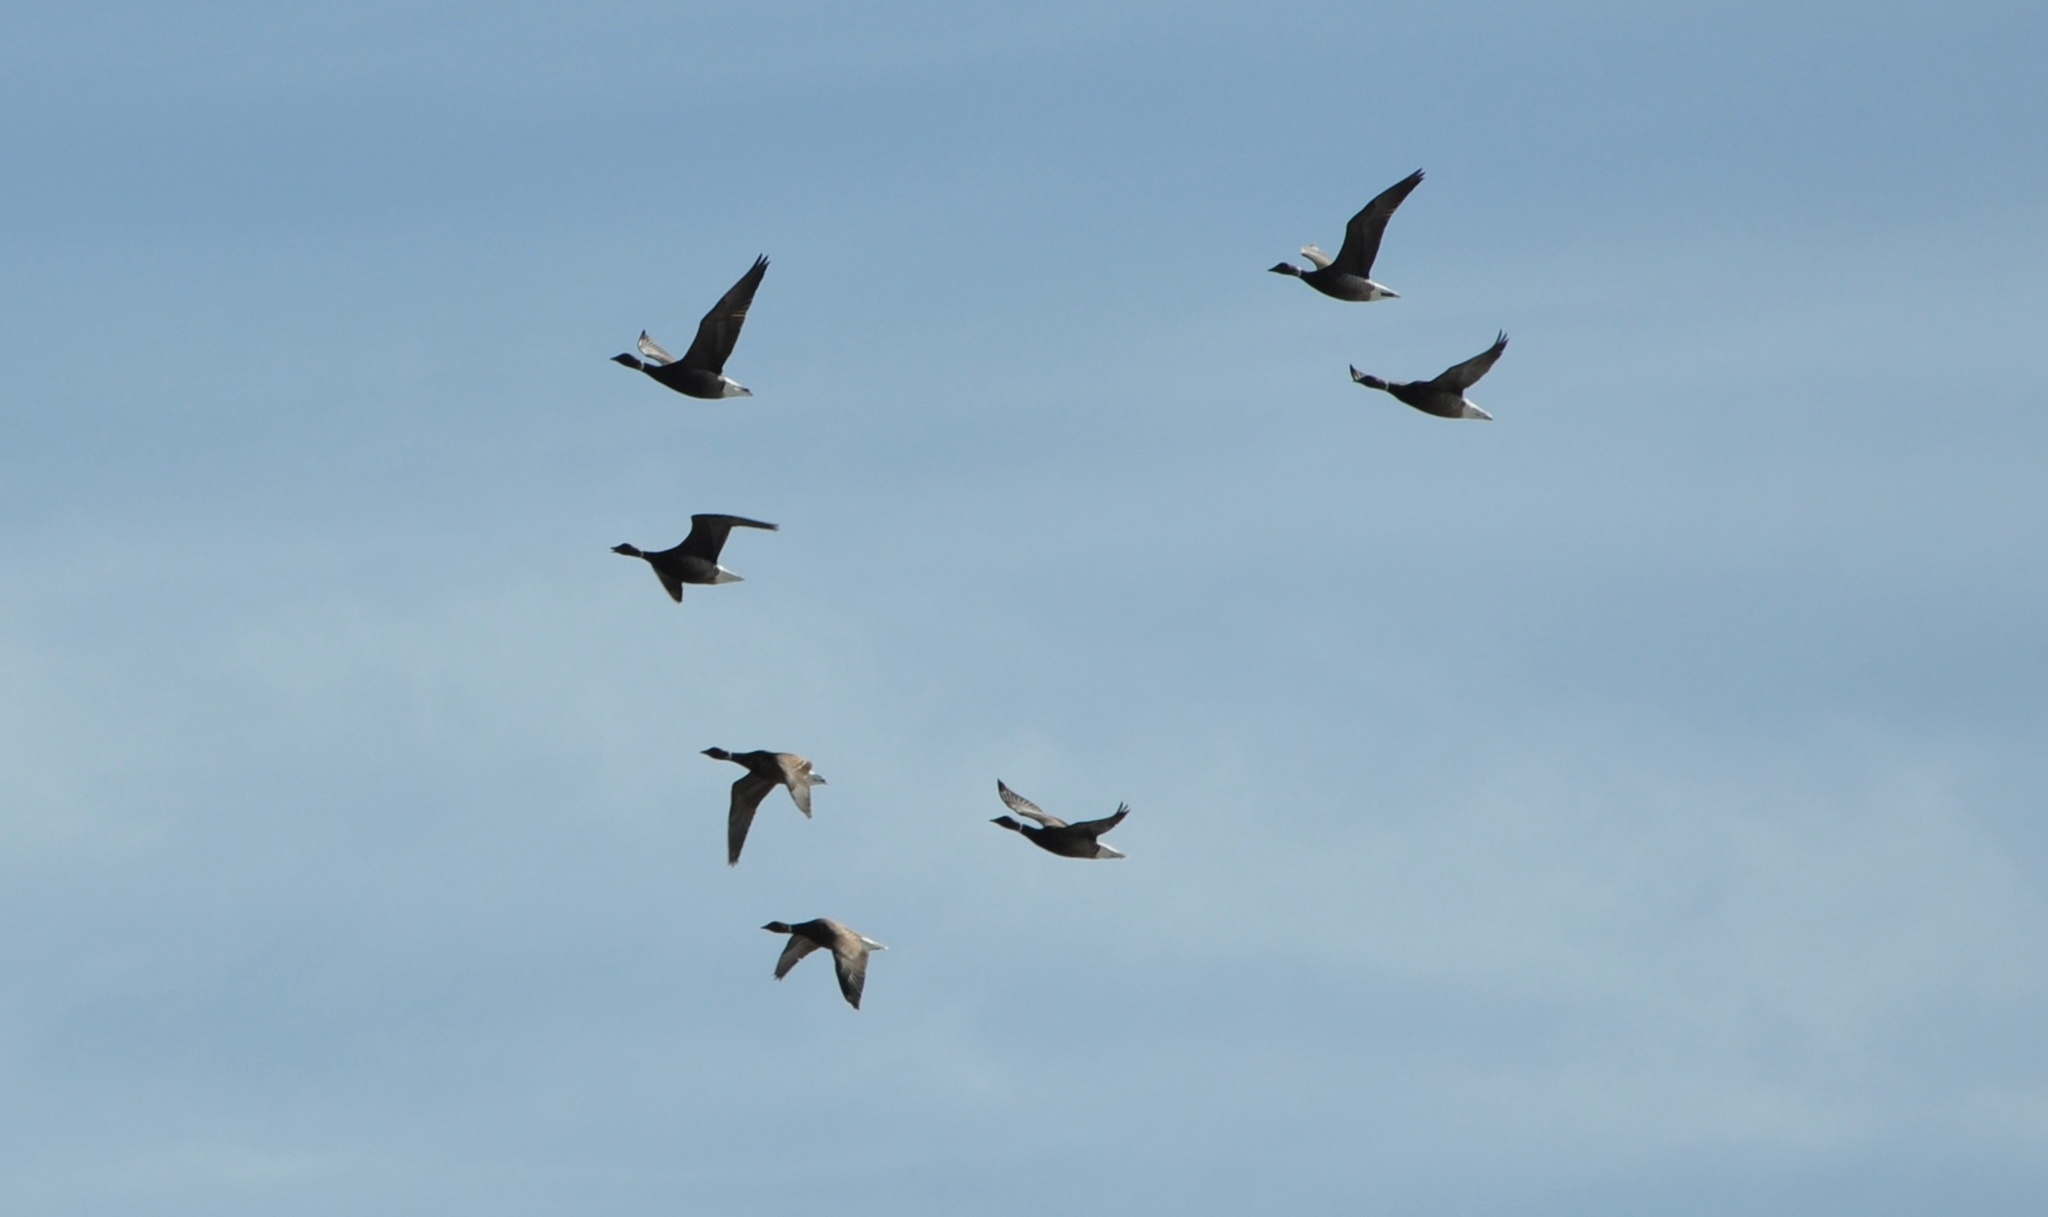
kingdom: Animalia
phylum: Chordata
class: Aves
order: Anseriformes
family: Anatidae
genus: Branta
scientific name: Branta bernicla
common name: Brant goose
